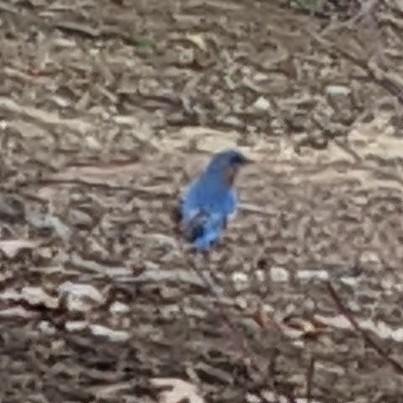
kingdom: Animalia
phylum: Chordata
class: Aves
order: Passeriformes
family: Turdidae
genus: Sialia
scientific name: Sialia sialis
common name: Eastern bluebird
